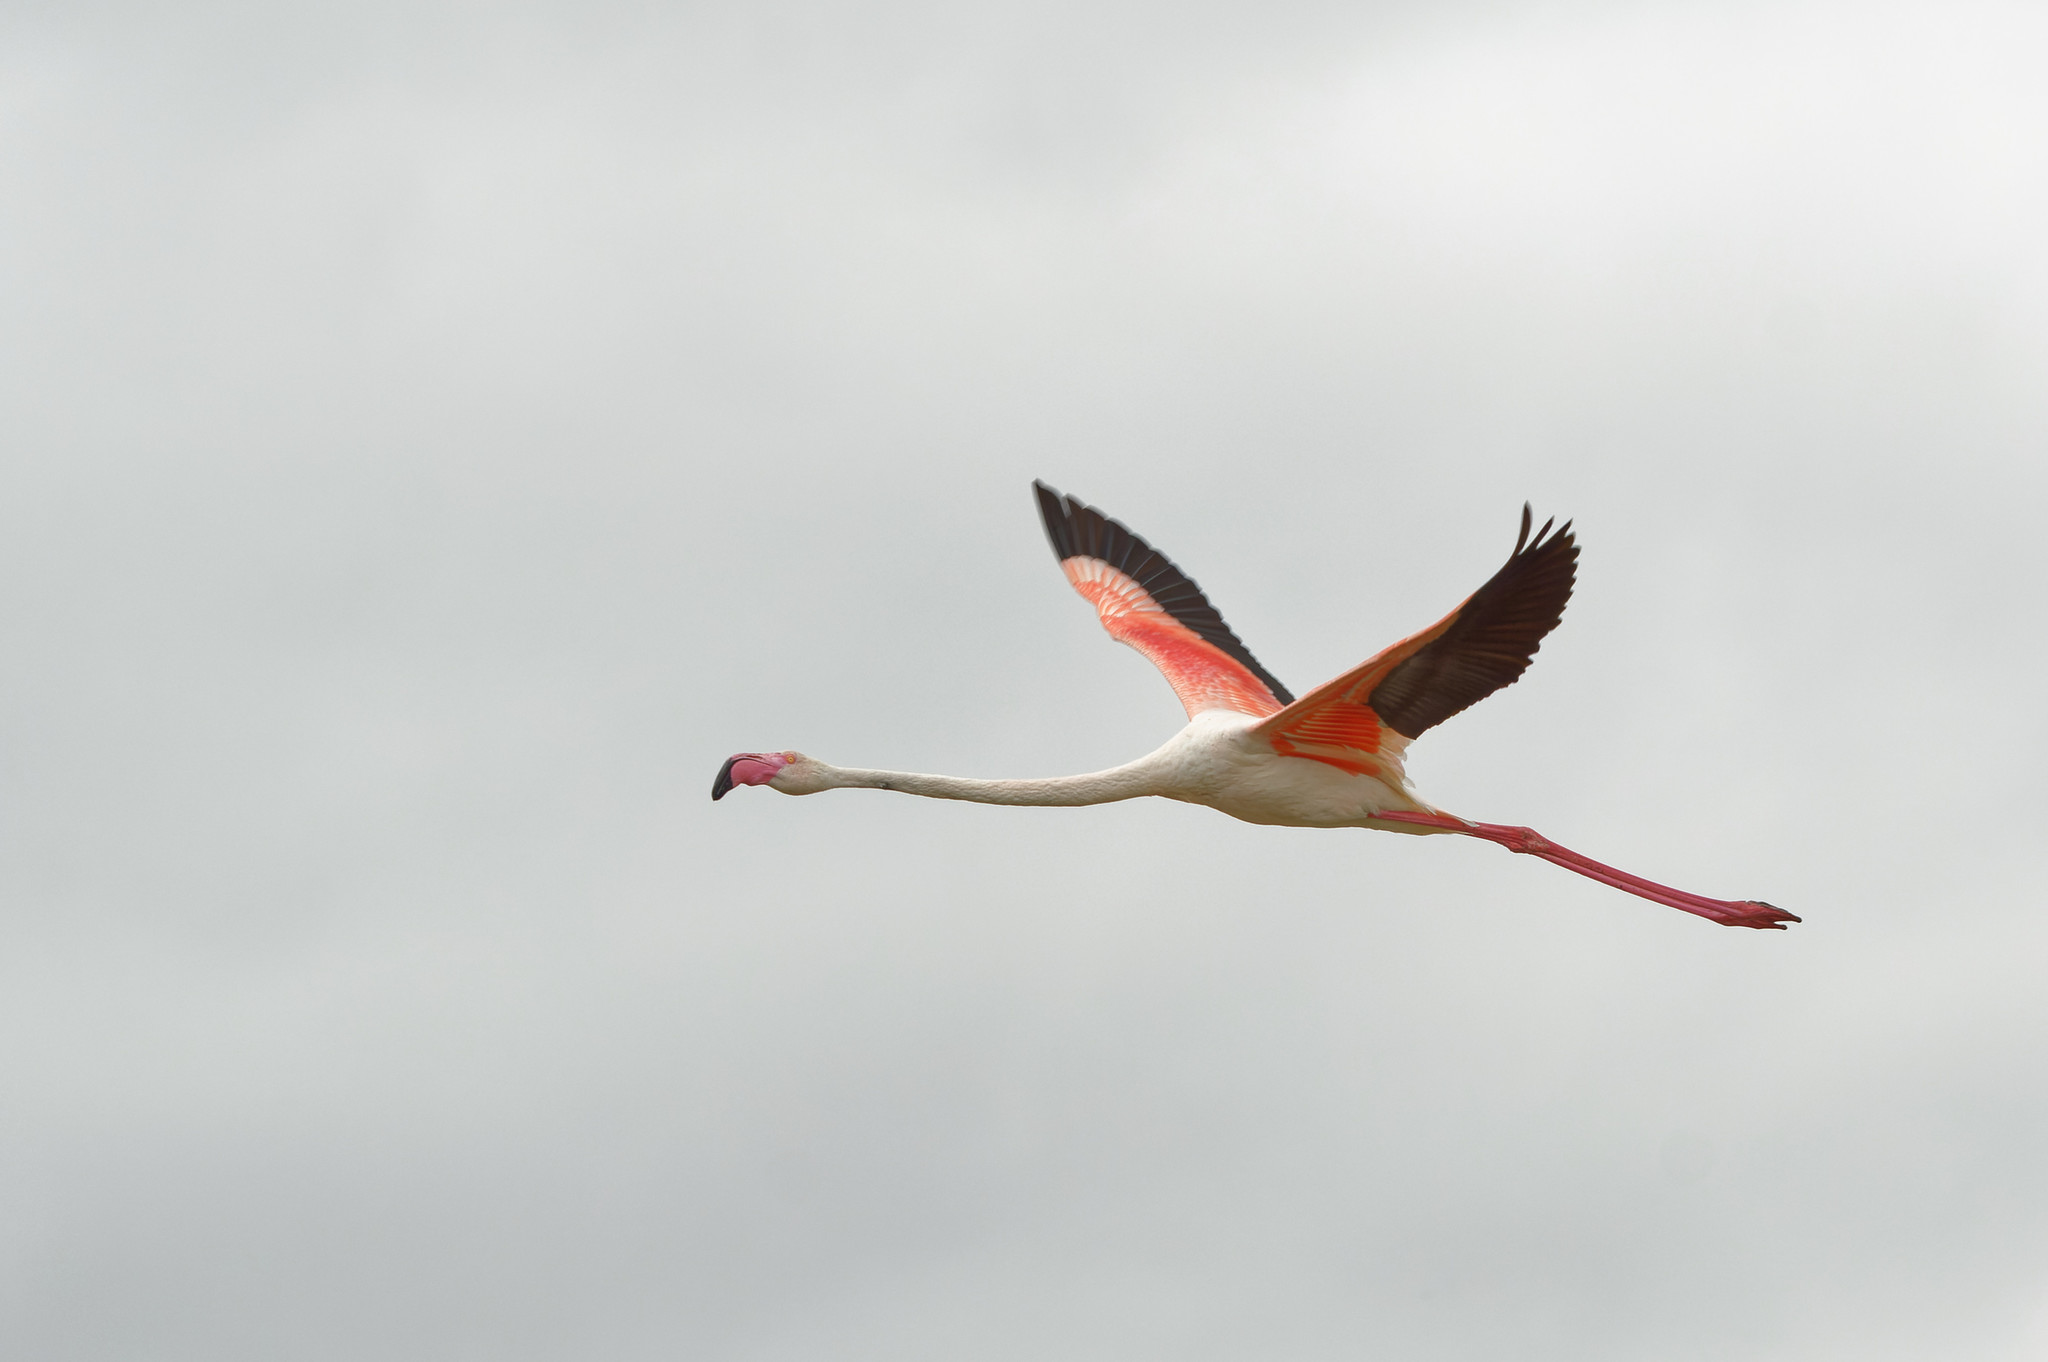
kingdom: Animalia
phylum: Chordata
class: Aves
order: Phoenicopteriformes
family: Phoenicopteridae
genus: Phoenicopterus
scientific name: Phoenicopterus roseus
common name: Greater flamingo
